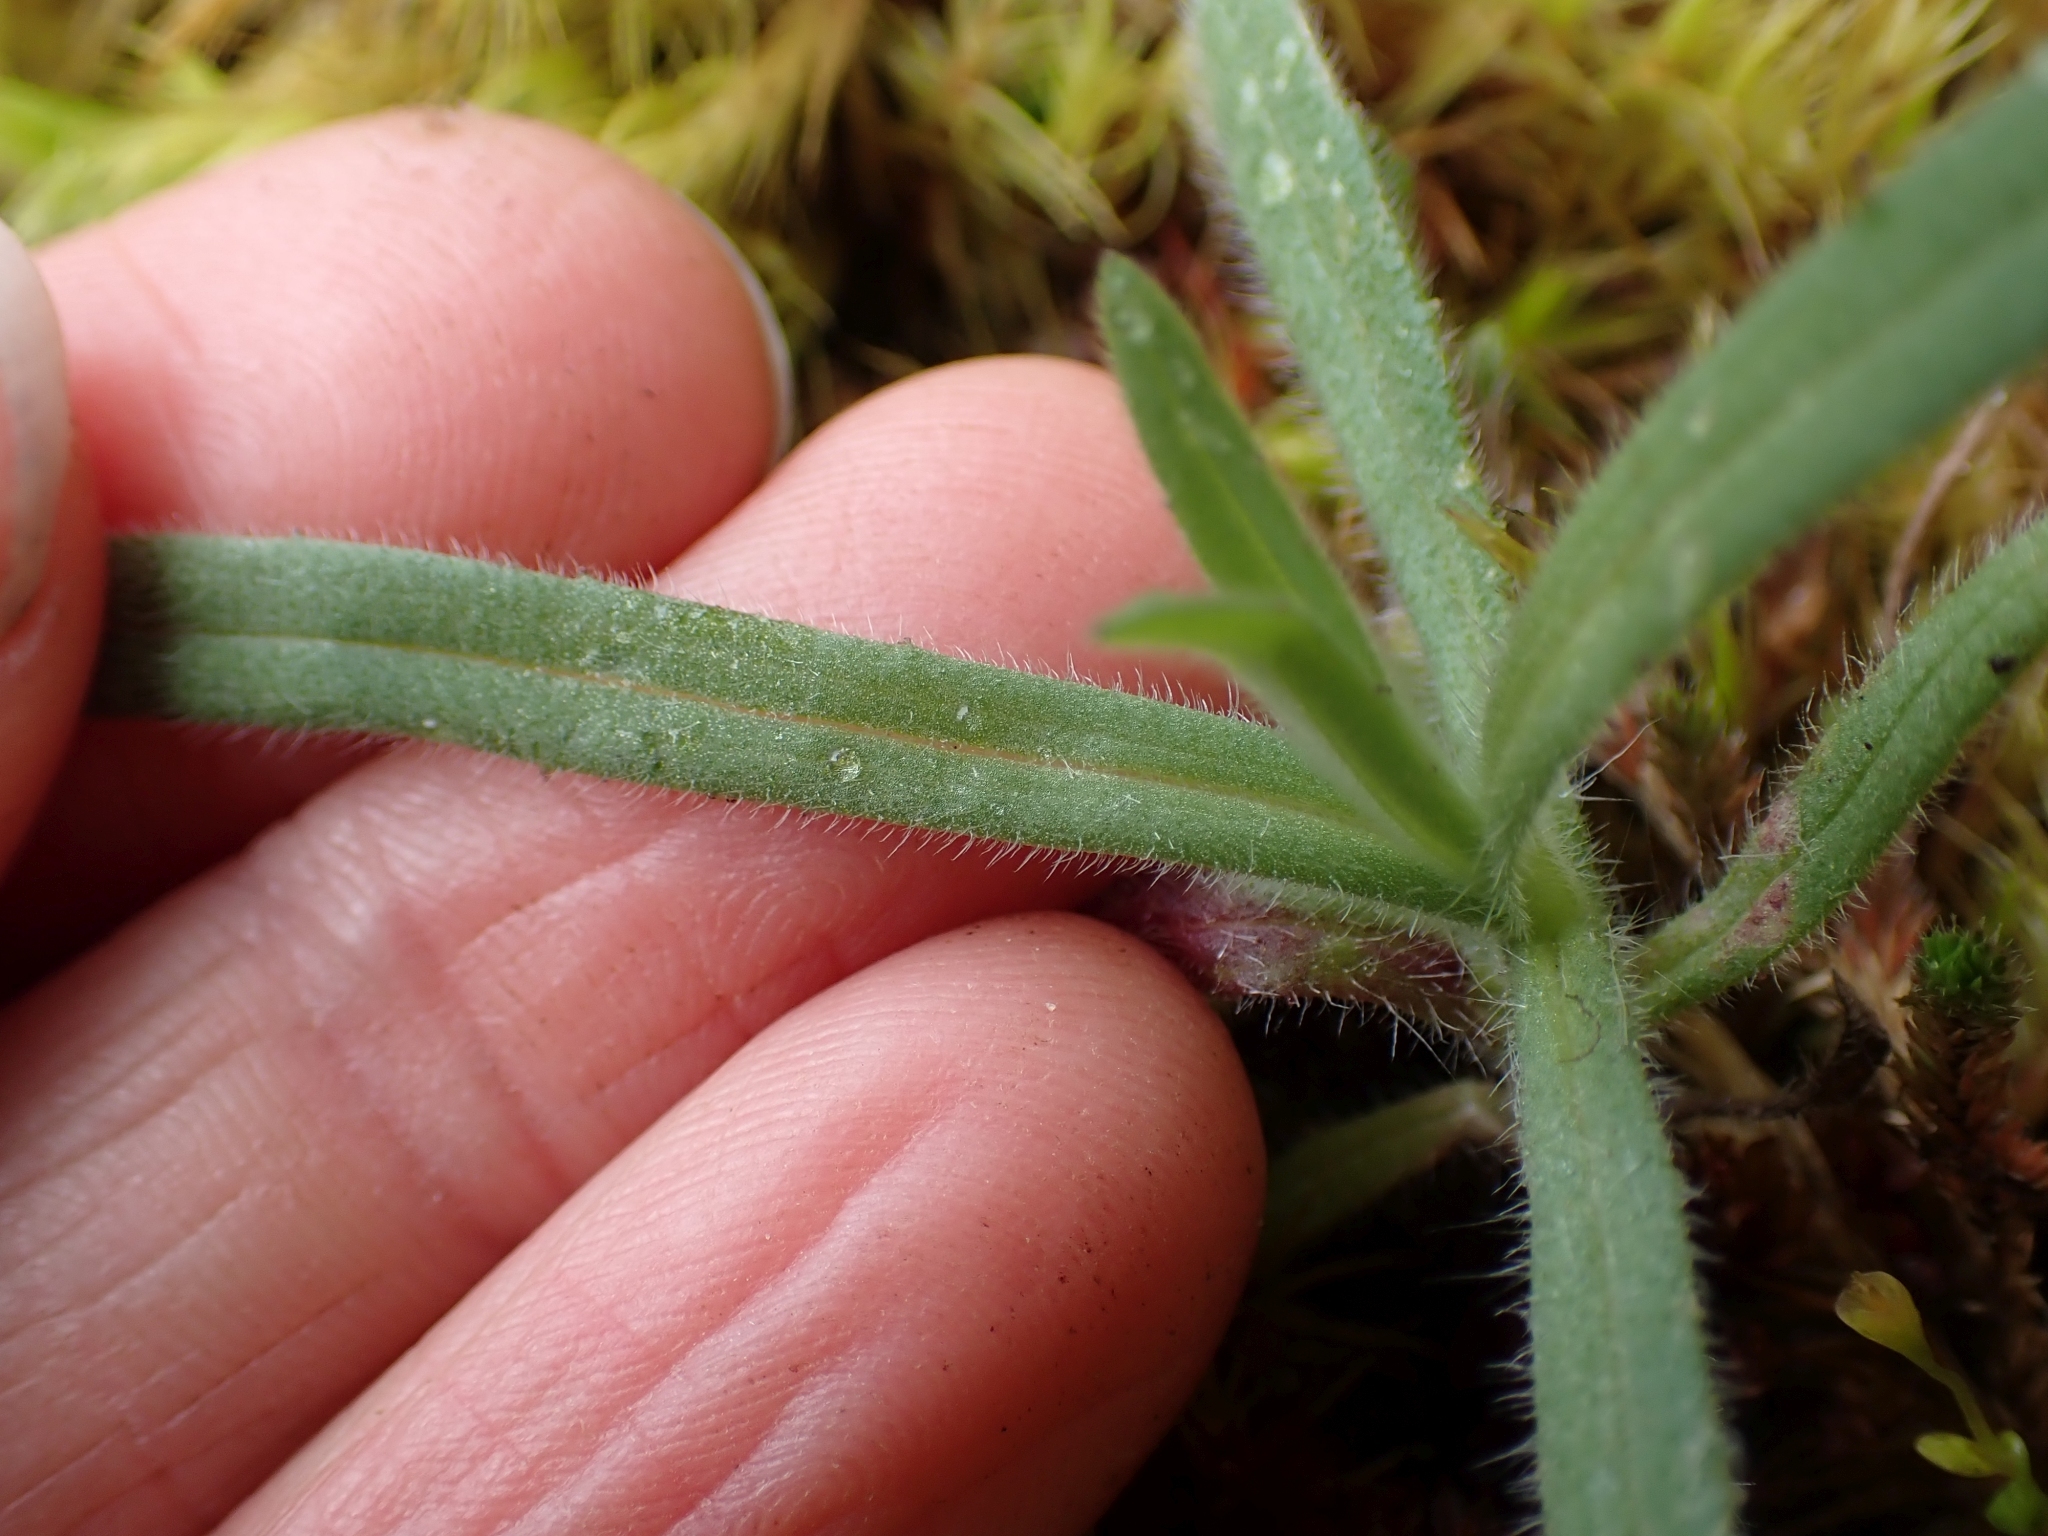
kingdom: Plantae
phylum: Tracheophyta
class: Magnoliopsida
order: Asterales
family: Asteraceae
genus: Anisocarpus
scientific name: Anisocarpus madioides
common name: Woodland madia
